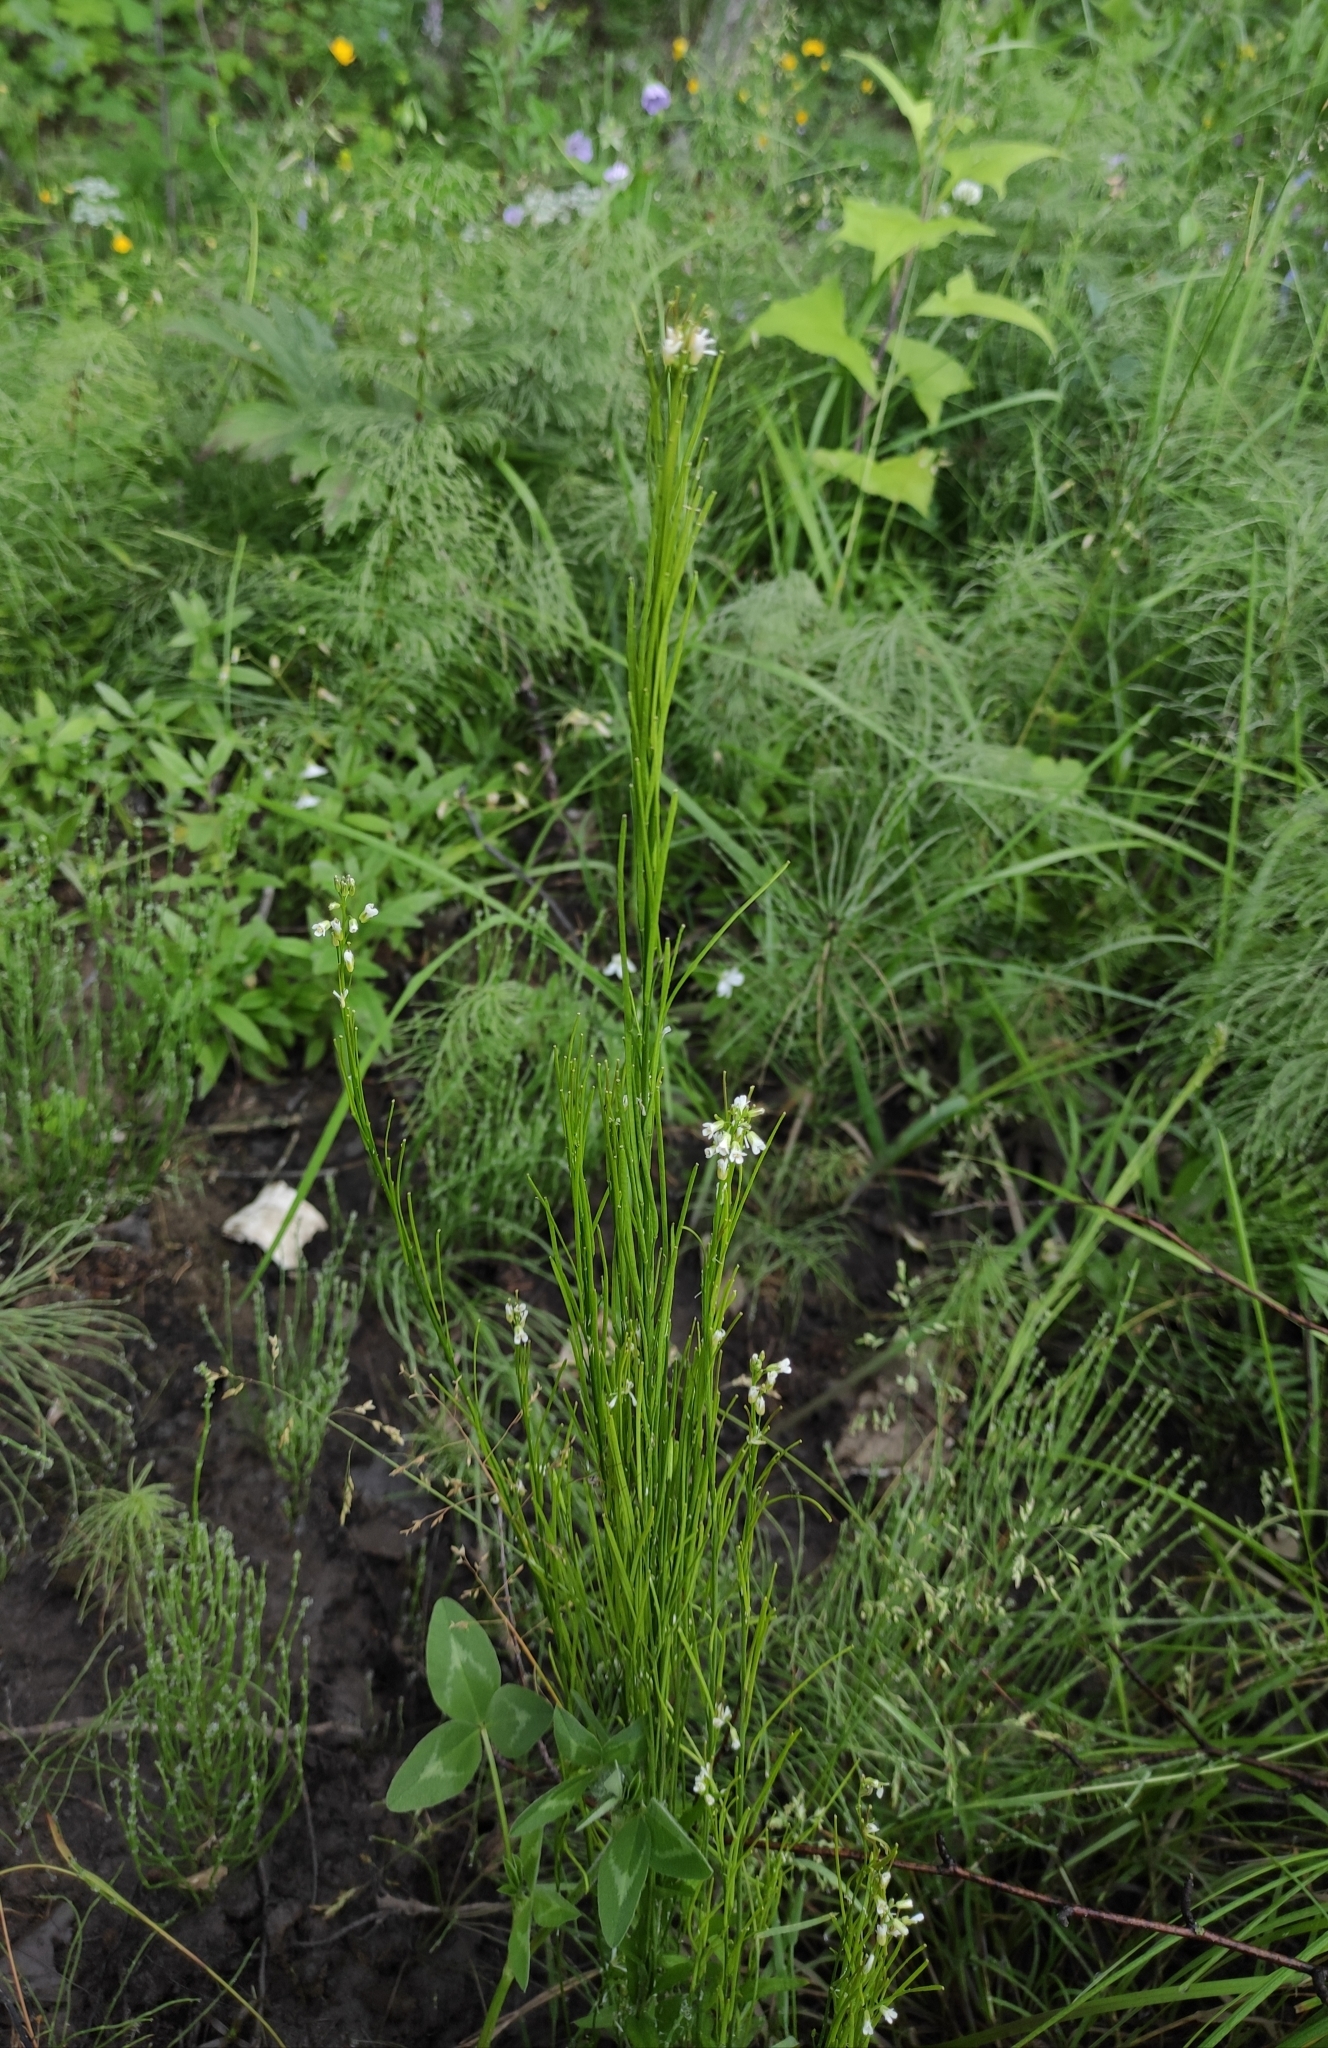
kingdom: Plantae
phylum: Tracheophyta
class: Magnoliopsida
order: Brassicales
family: Brassicaceae
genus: Arabis
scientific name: Arabis sagittata
